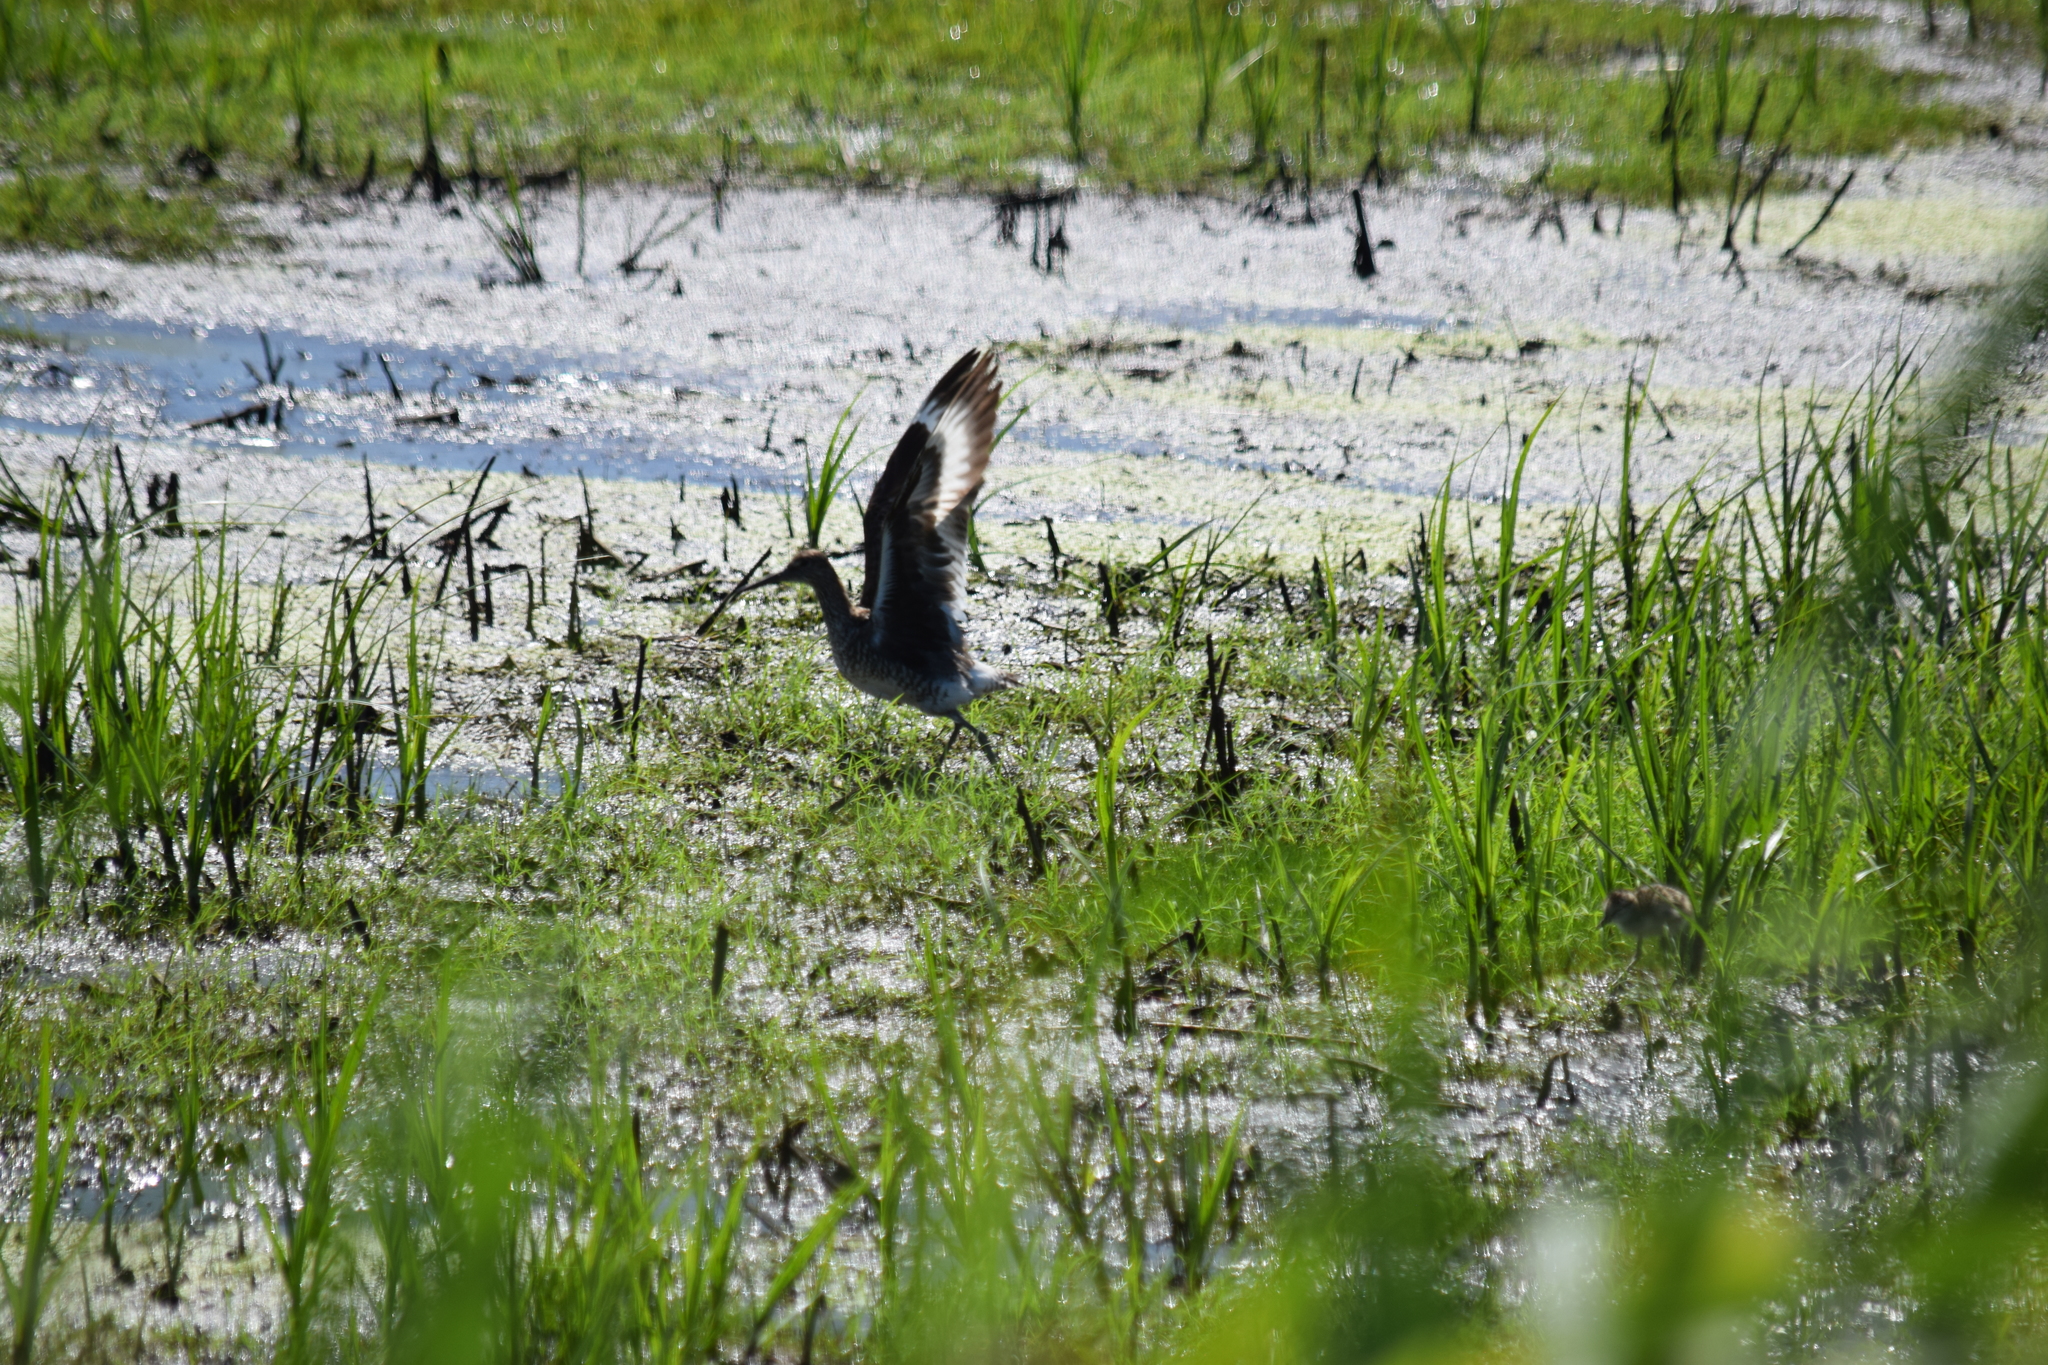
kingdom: Animalia
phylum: Chordata
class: Aves
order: Charadriiformes
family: Scolopacidae
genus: Tringa
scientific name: Tringa semipalmata
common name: Willet
